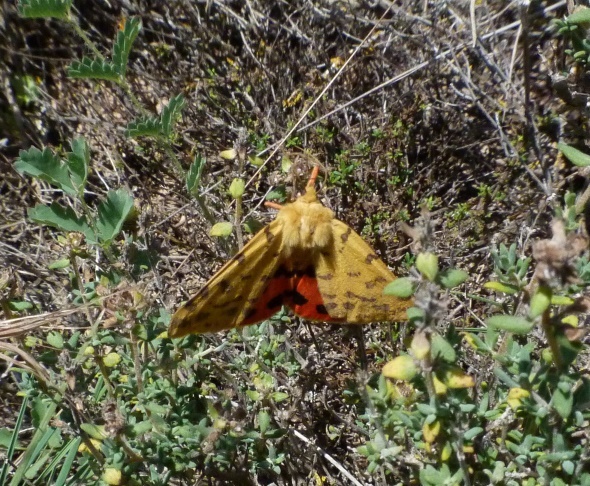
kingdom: Animalia
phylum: Arthropoda
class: Insecta
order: Lepidoptera
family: Erebidae
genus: Rhyparia
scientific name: Rhyparia purpurata
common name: Purple tiger
